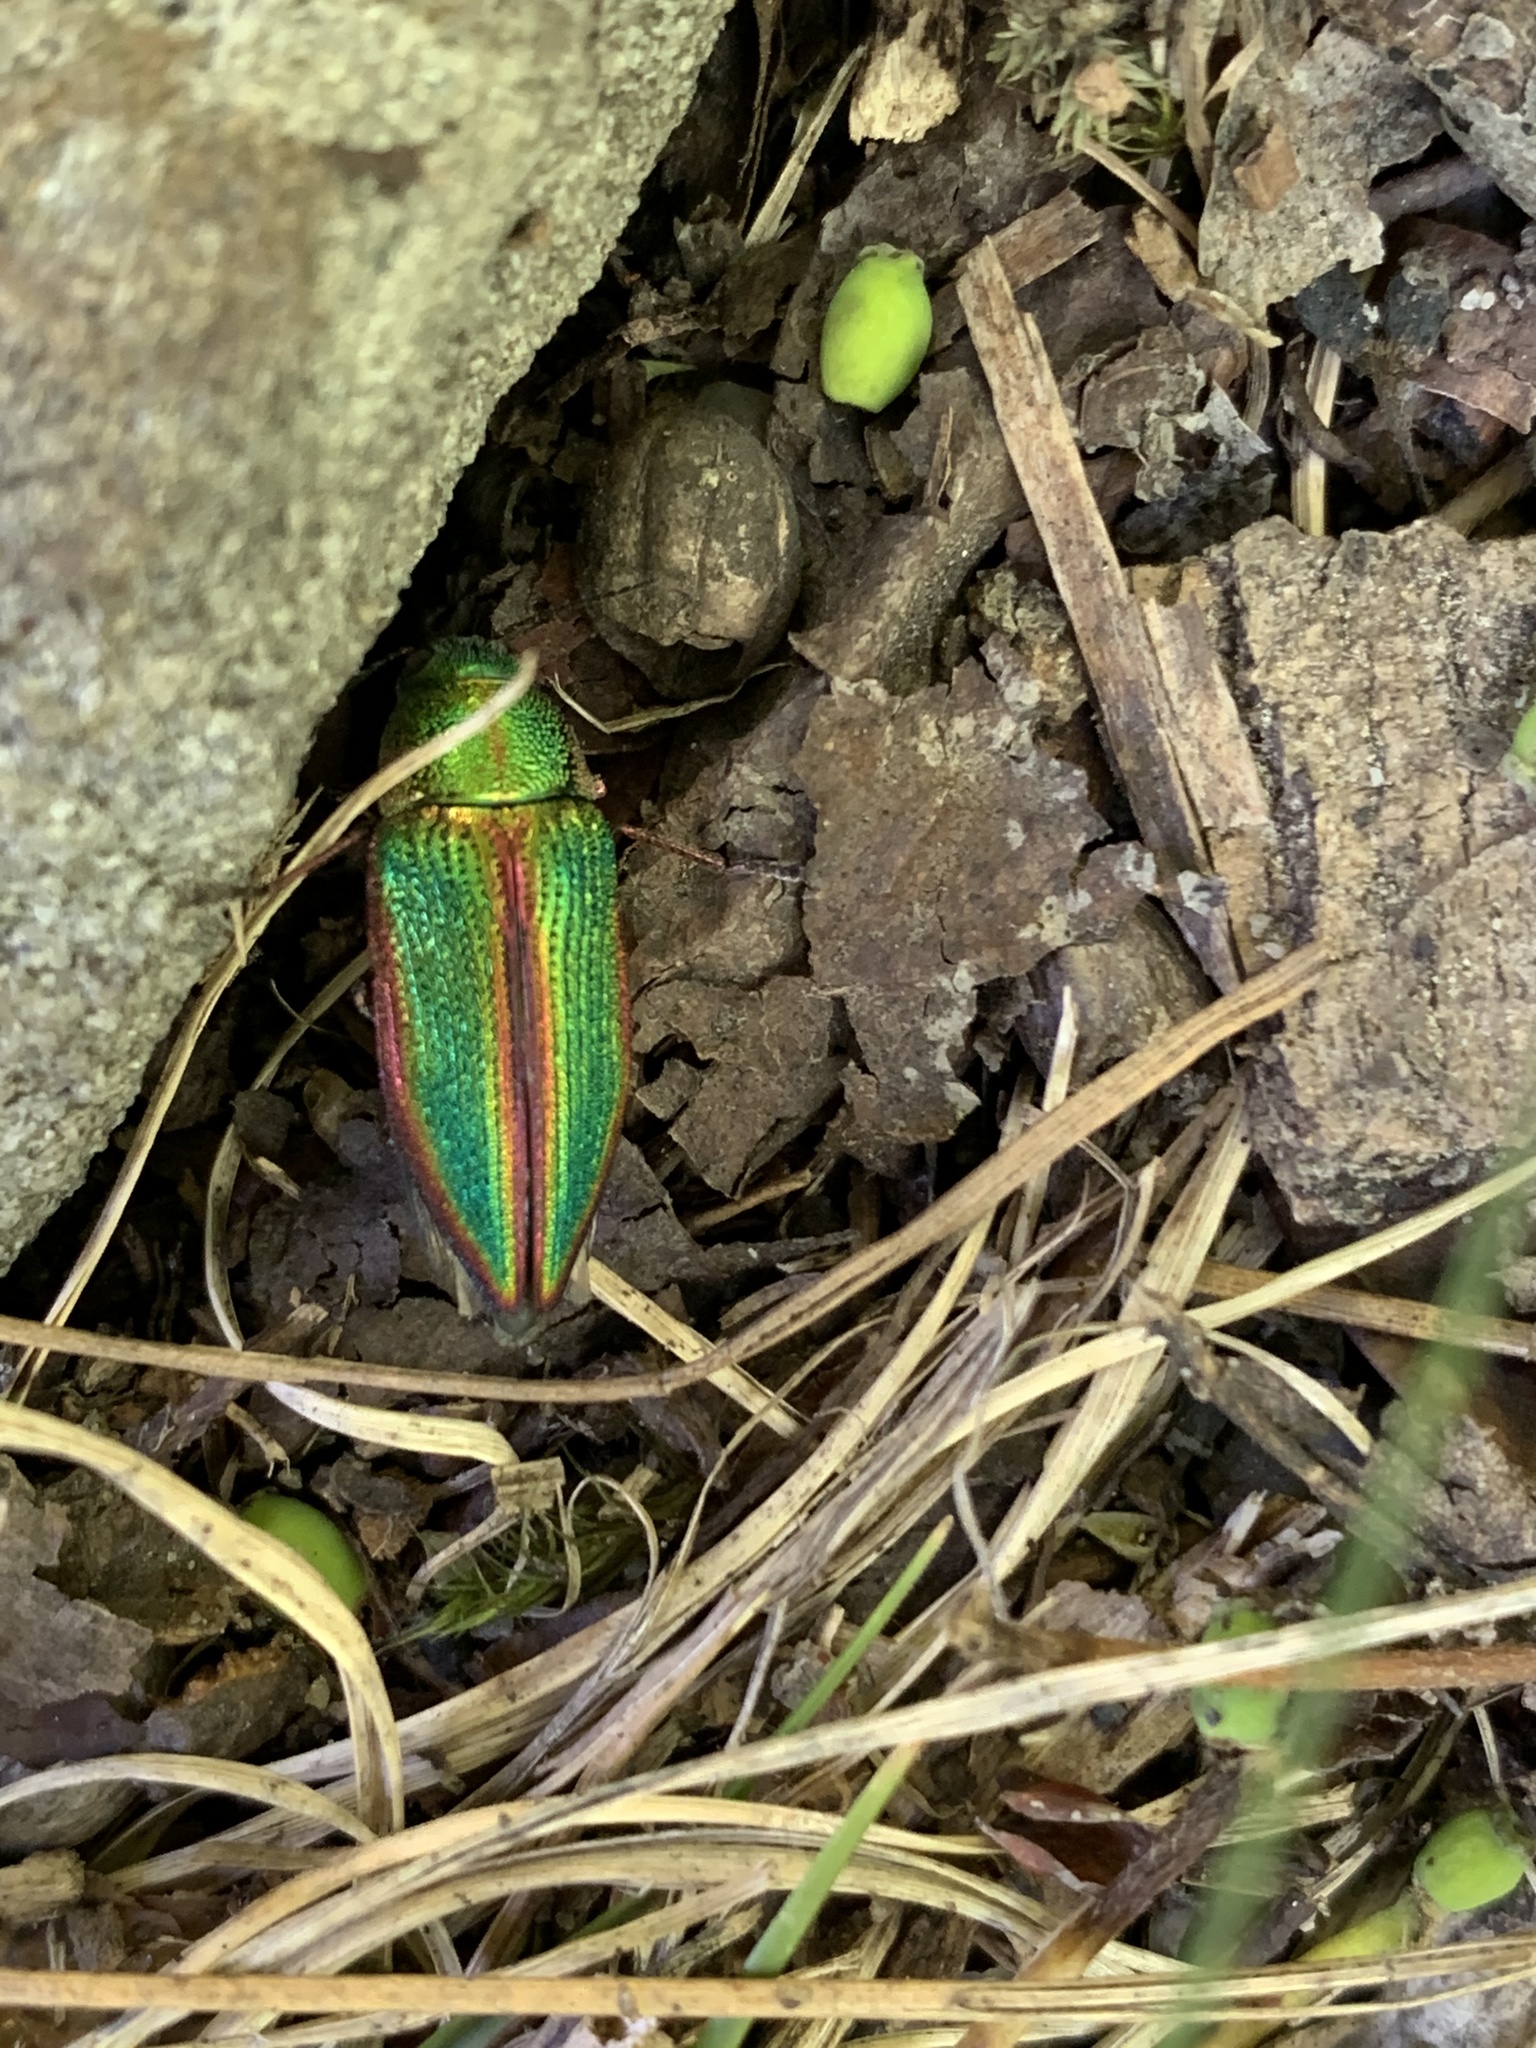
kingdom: Animalia
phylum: Arthropoda
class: Insecta
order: Coleoptera
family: Buprestidae
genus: Buprestis
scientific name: Buprestis salisburyensis
